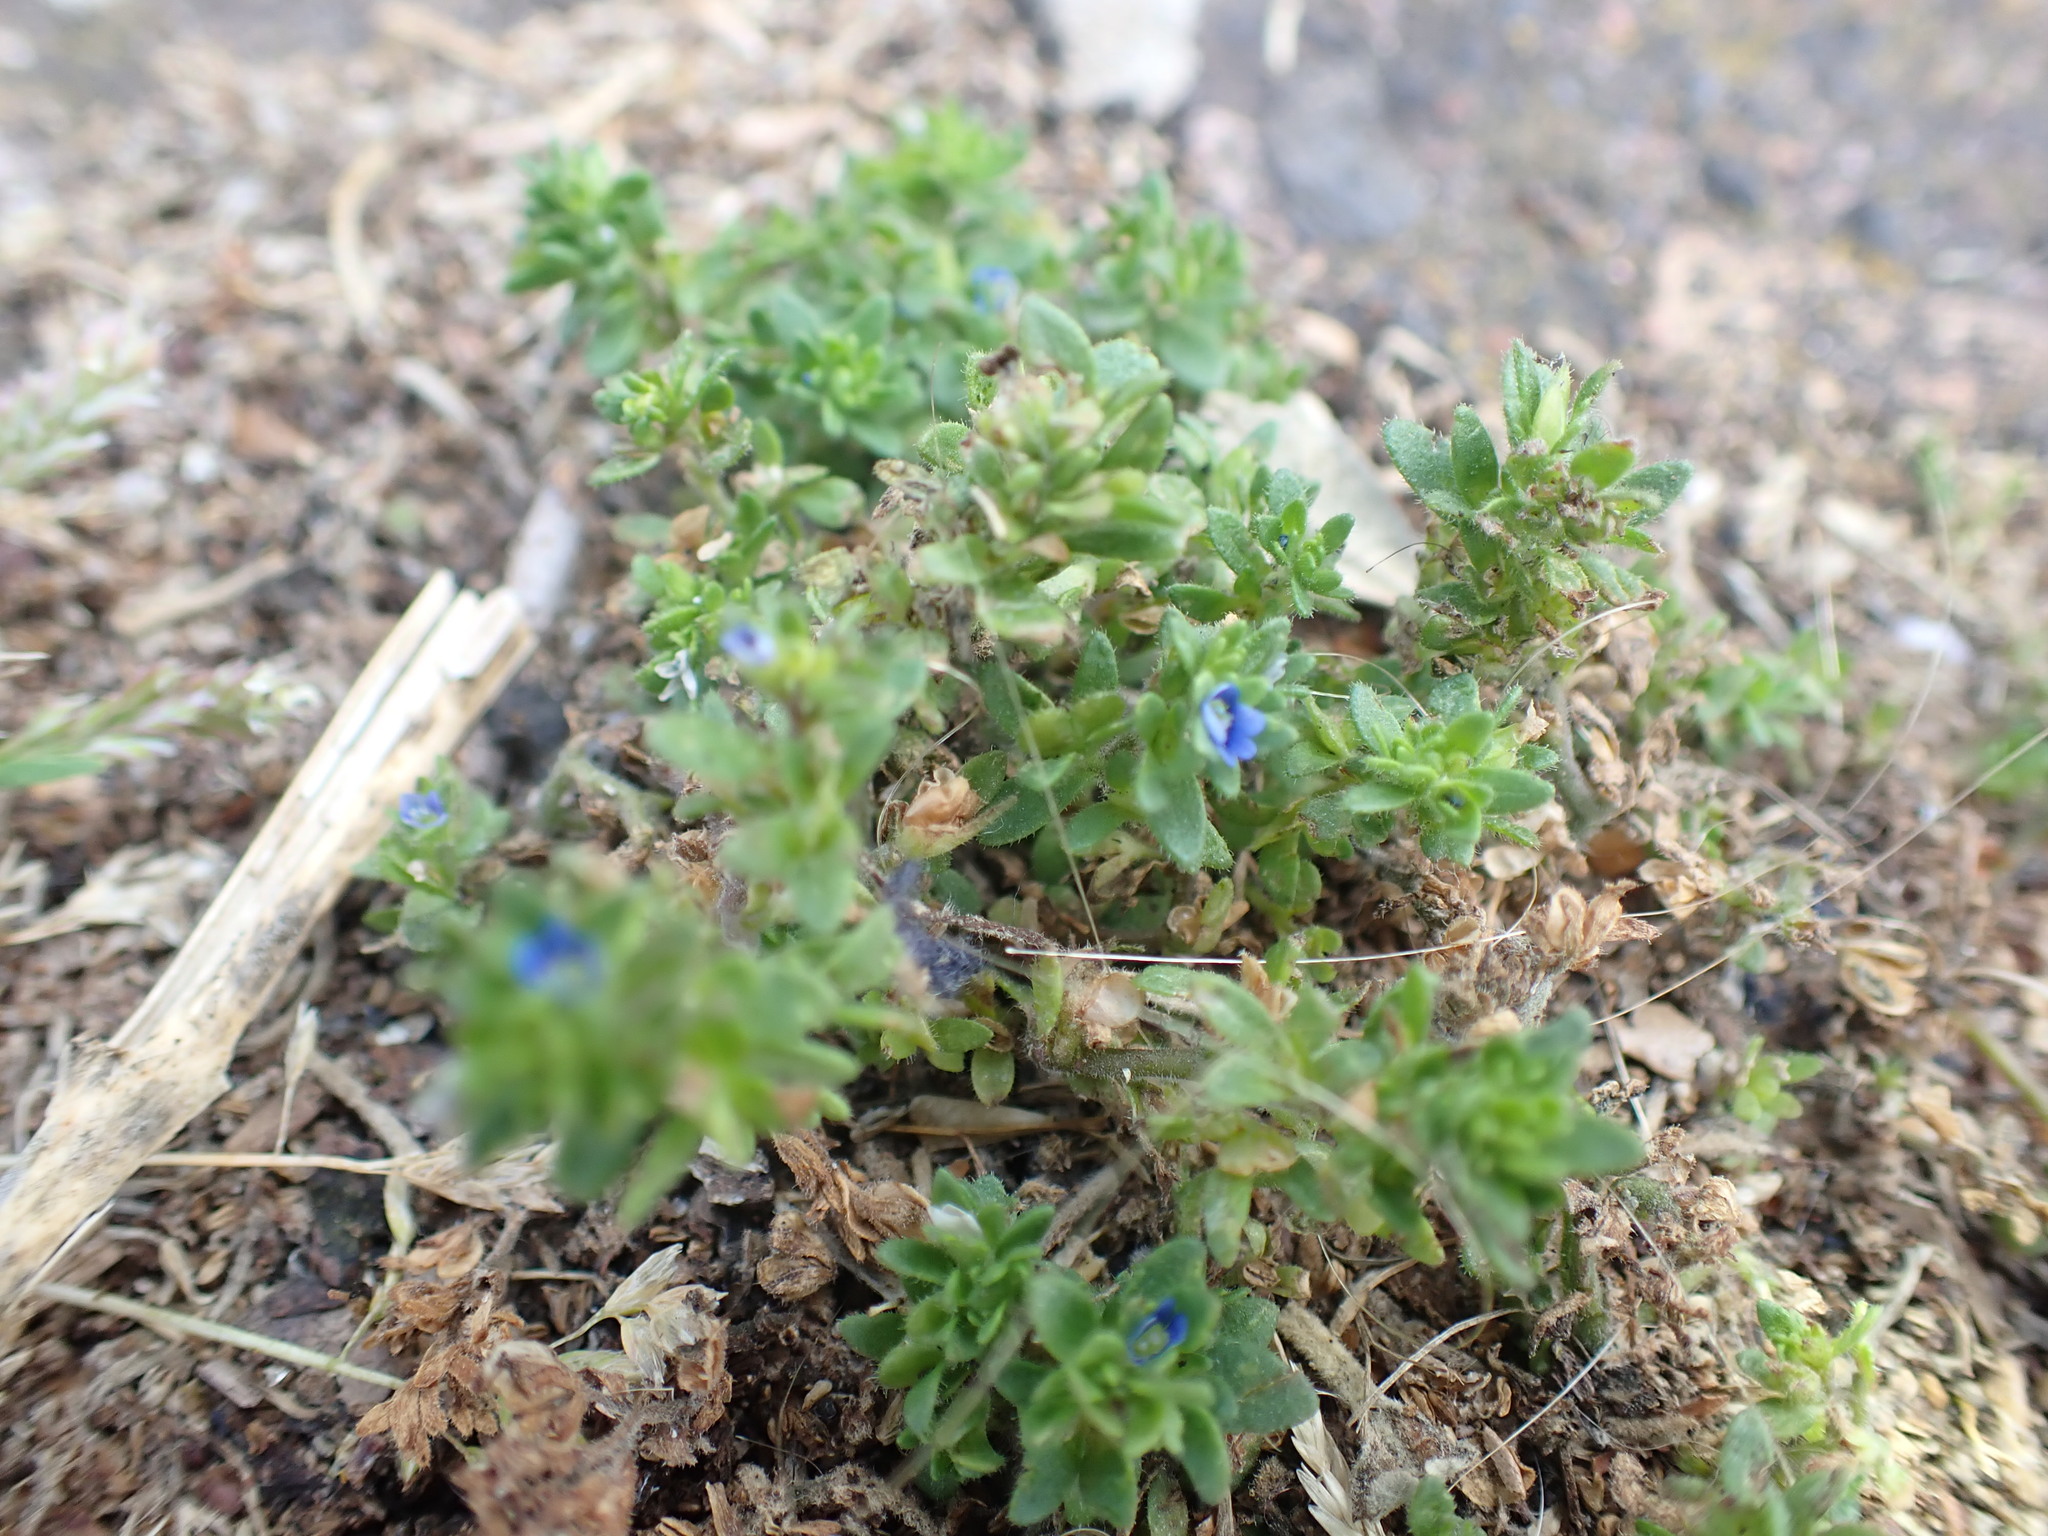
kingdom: Plantae
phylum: Tracheophyta
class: Magnoliopsida
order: Lamiales
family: Plantaginaceae
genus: Veronica
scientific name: Veronica arvensis
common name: Corn speedwell
